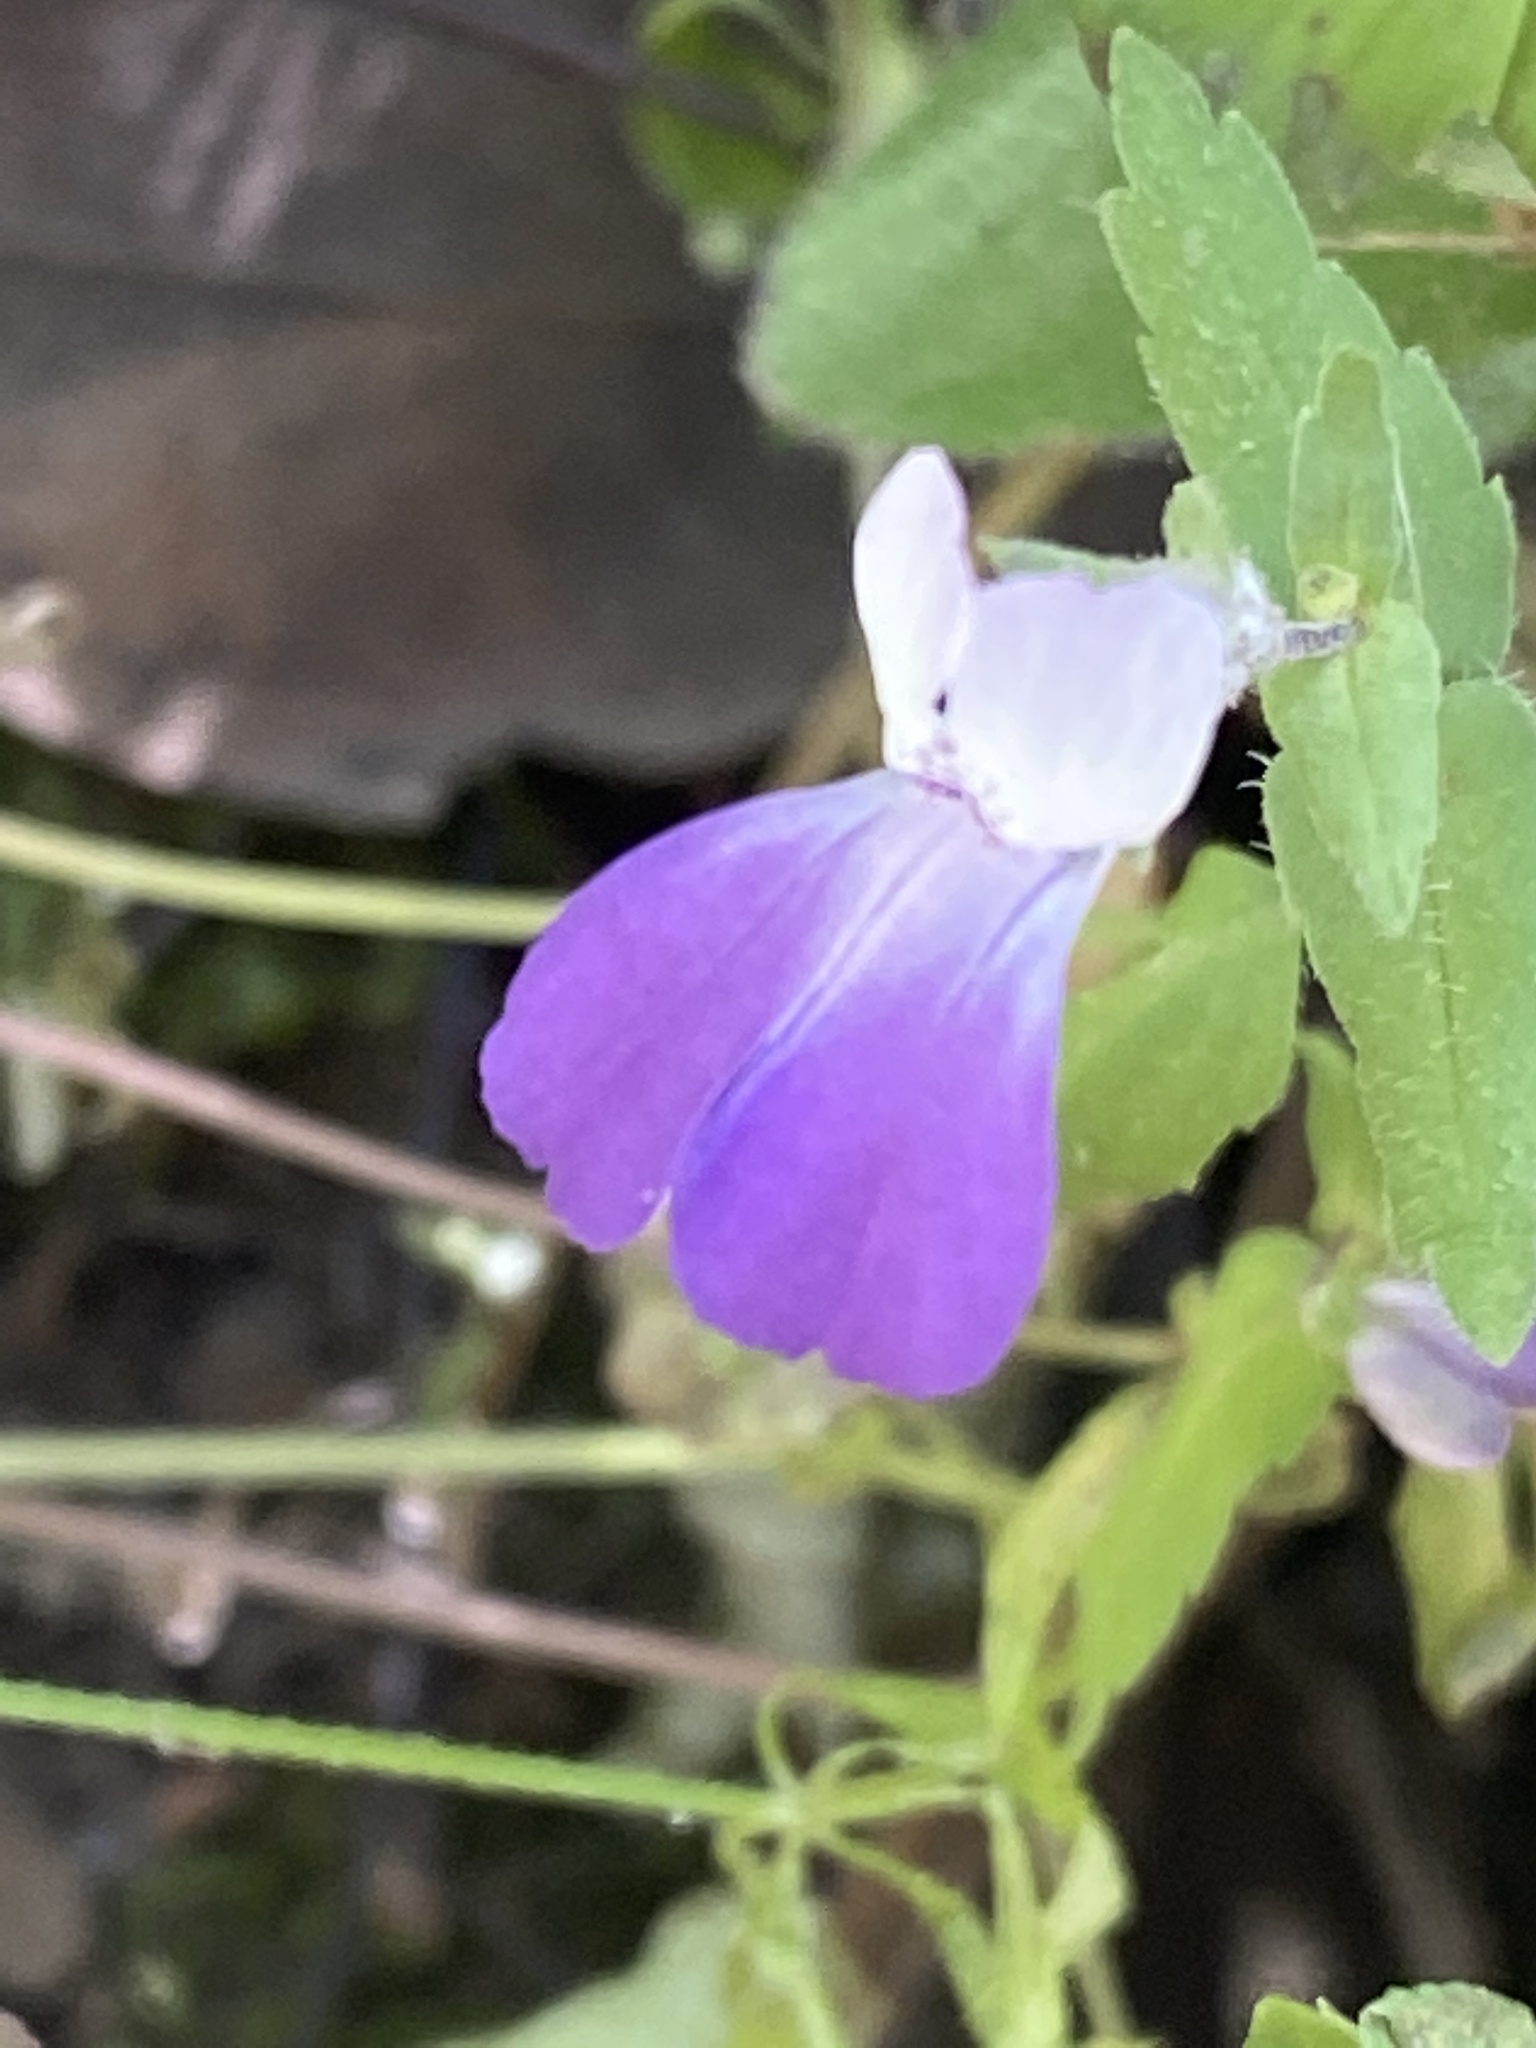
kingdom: Plantae
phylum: Tracheophyta
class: Magnoliopsida
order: Lamiales
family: Plantaginaceae
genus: Collinsia
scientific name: Collinsia multicolor
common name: San francisco collinsia
